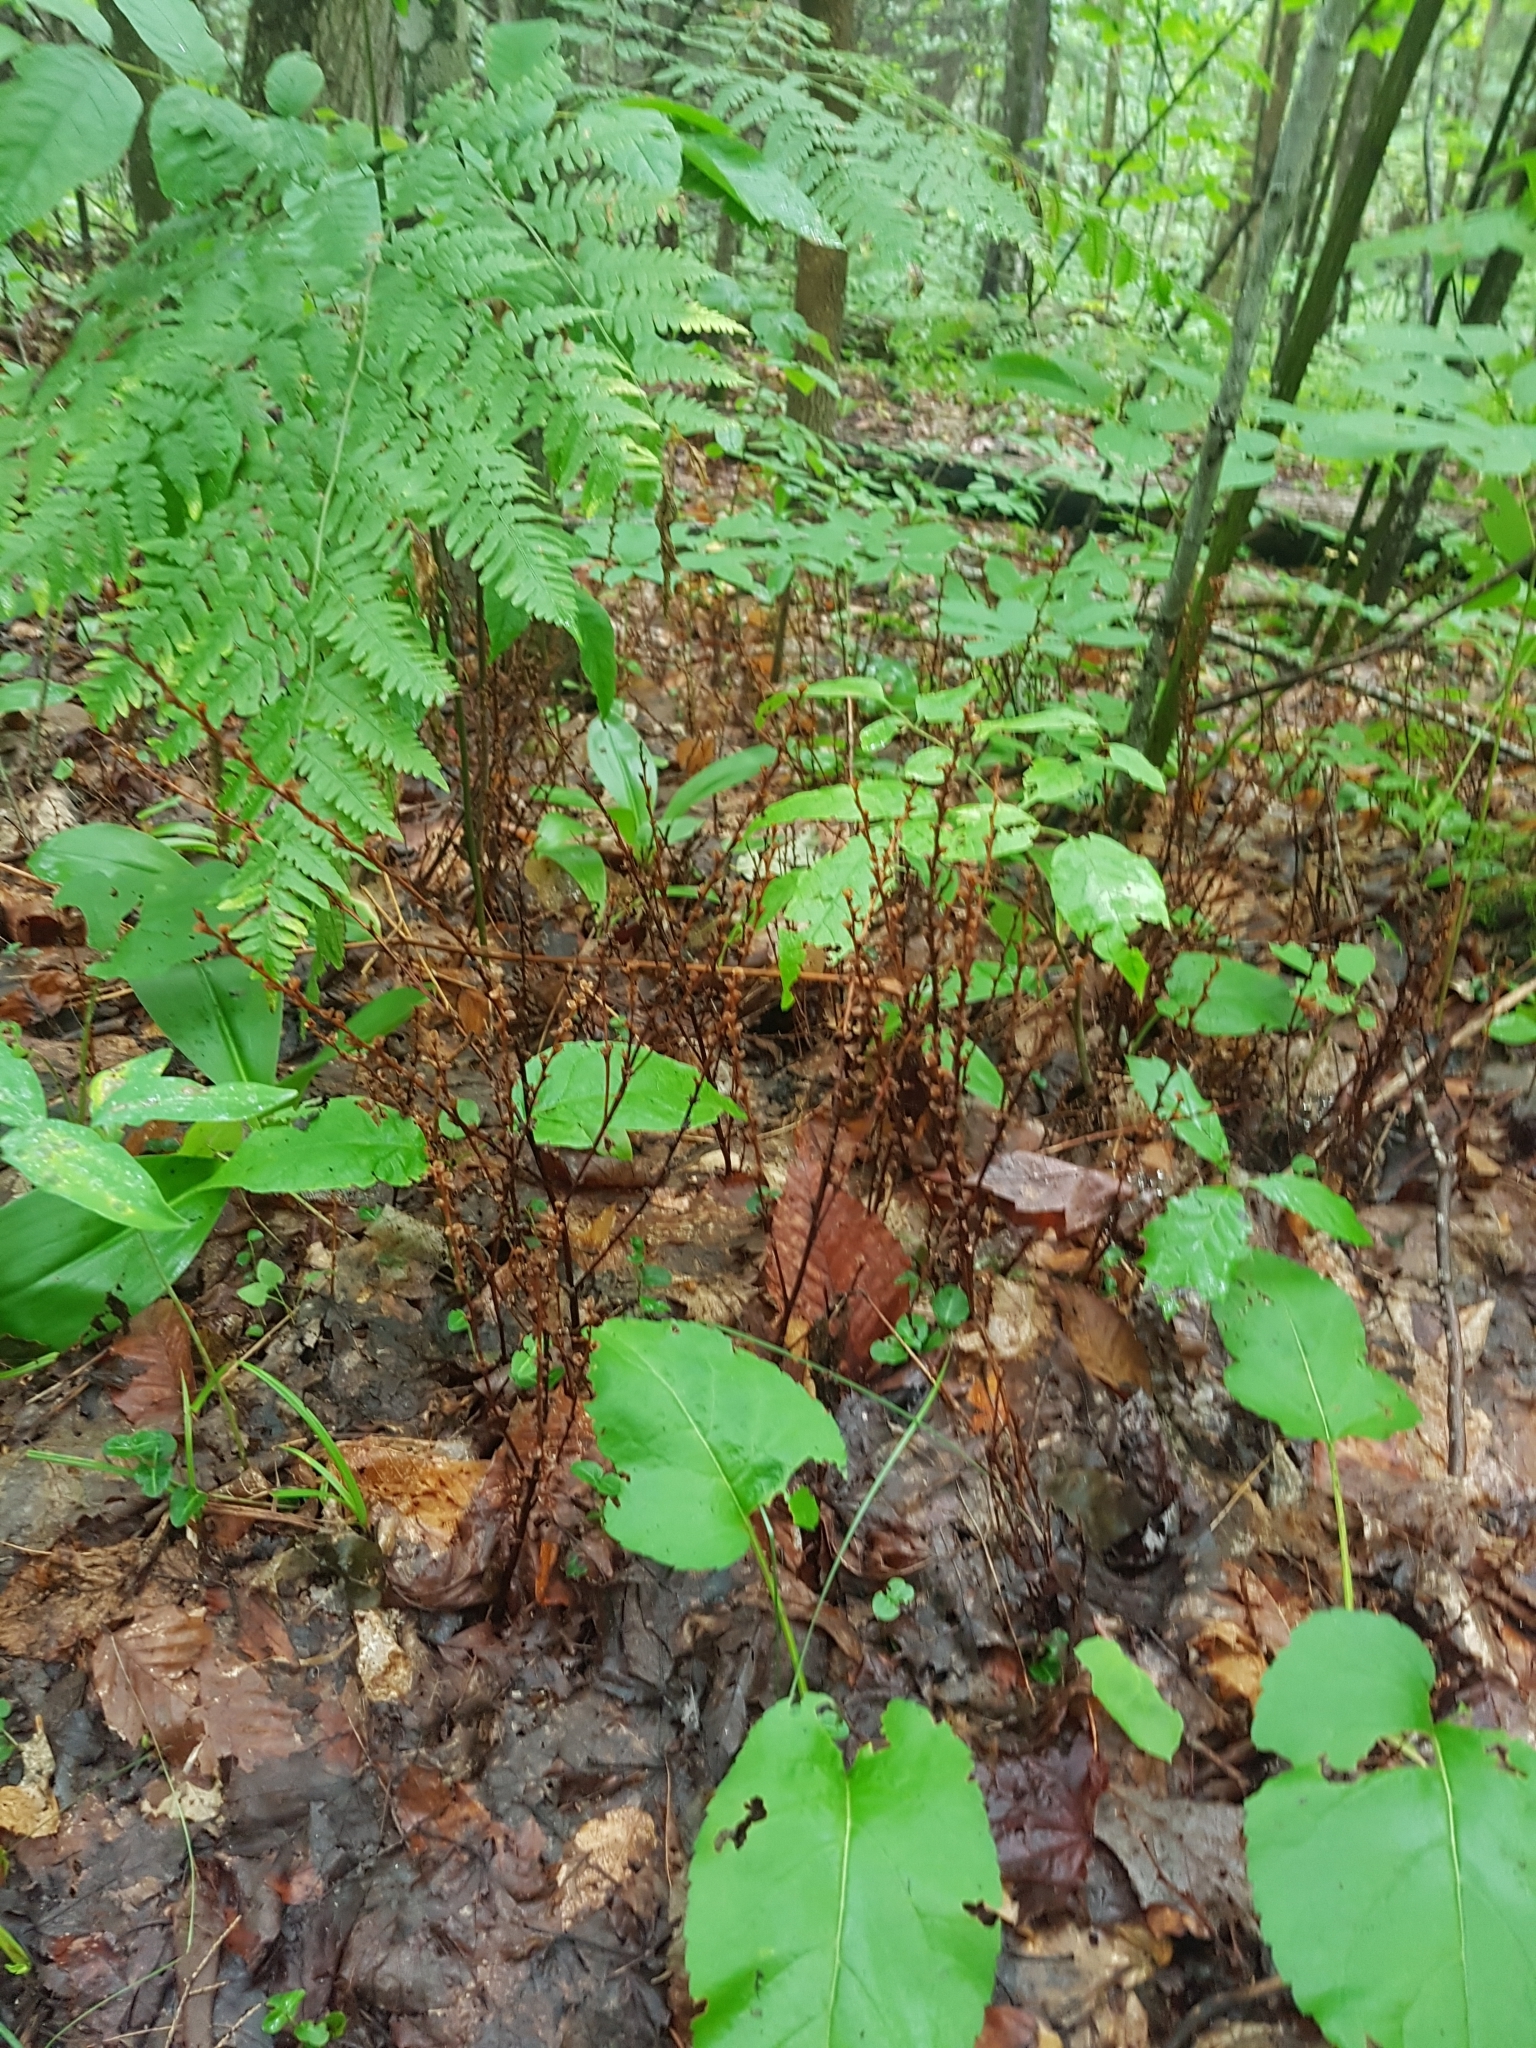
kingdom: Plantae
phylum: Tracheophyta
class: Magnoliopsida
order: Lamiales
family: Orobanchaceae
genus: Epifagus
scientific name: Epifagus virginiana
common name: Beechdrops
